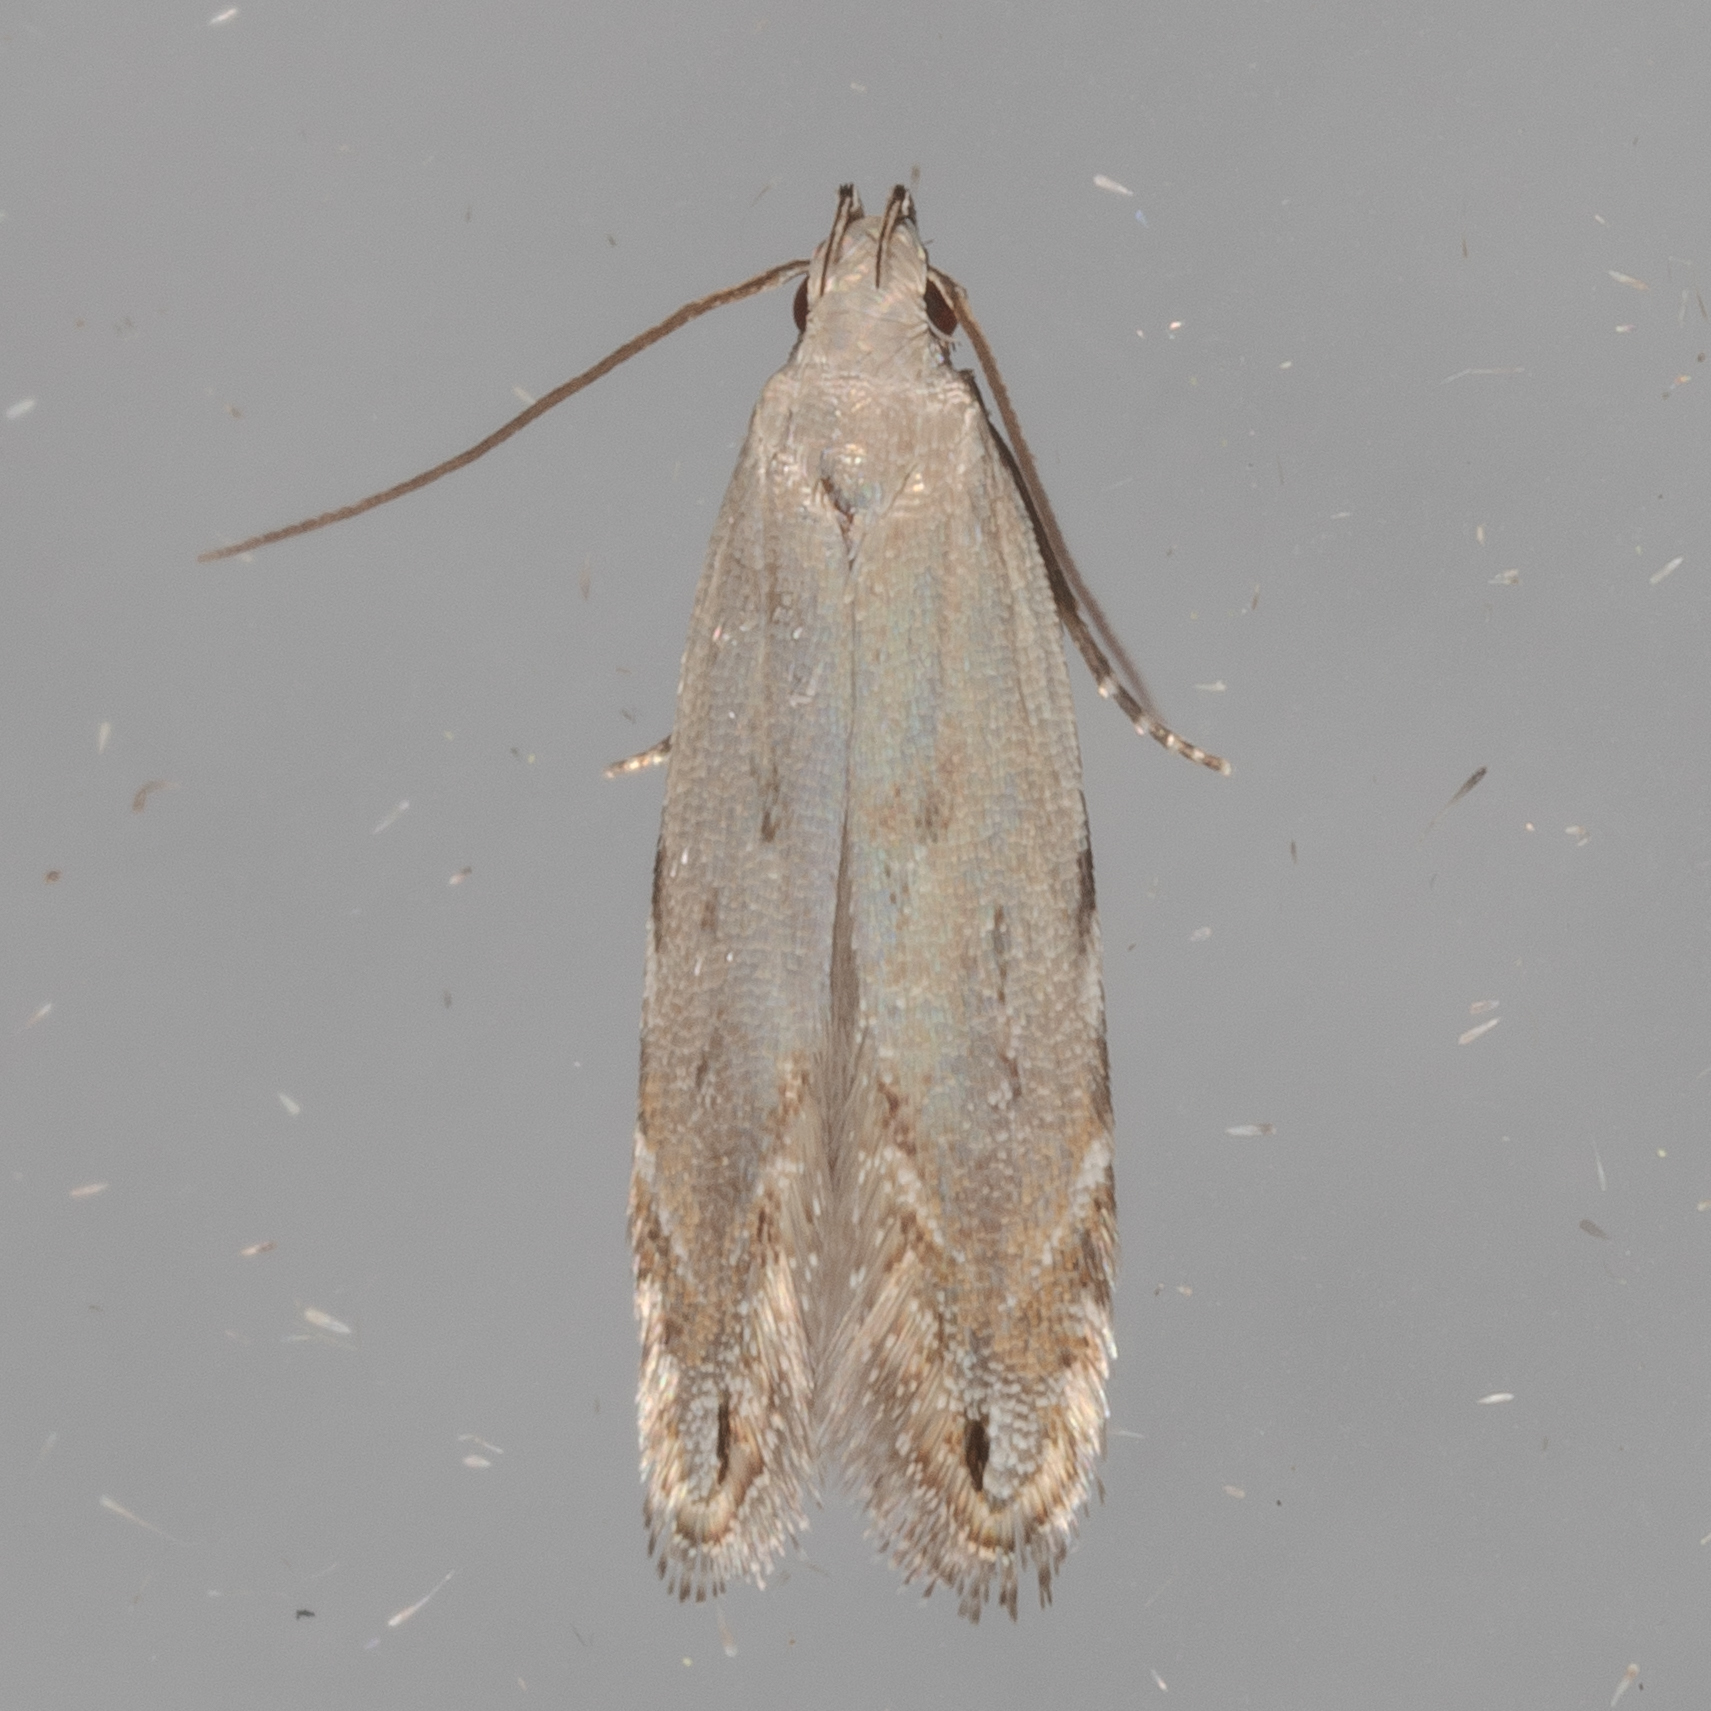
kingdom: Animalia
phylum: Arthropoda
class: Insecta
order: Lepidoptera
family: Gelechiidae
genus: Battaristis
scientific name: Battaristis concinnusella
